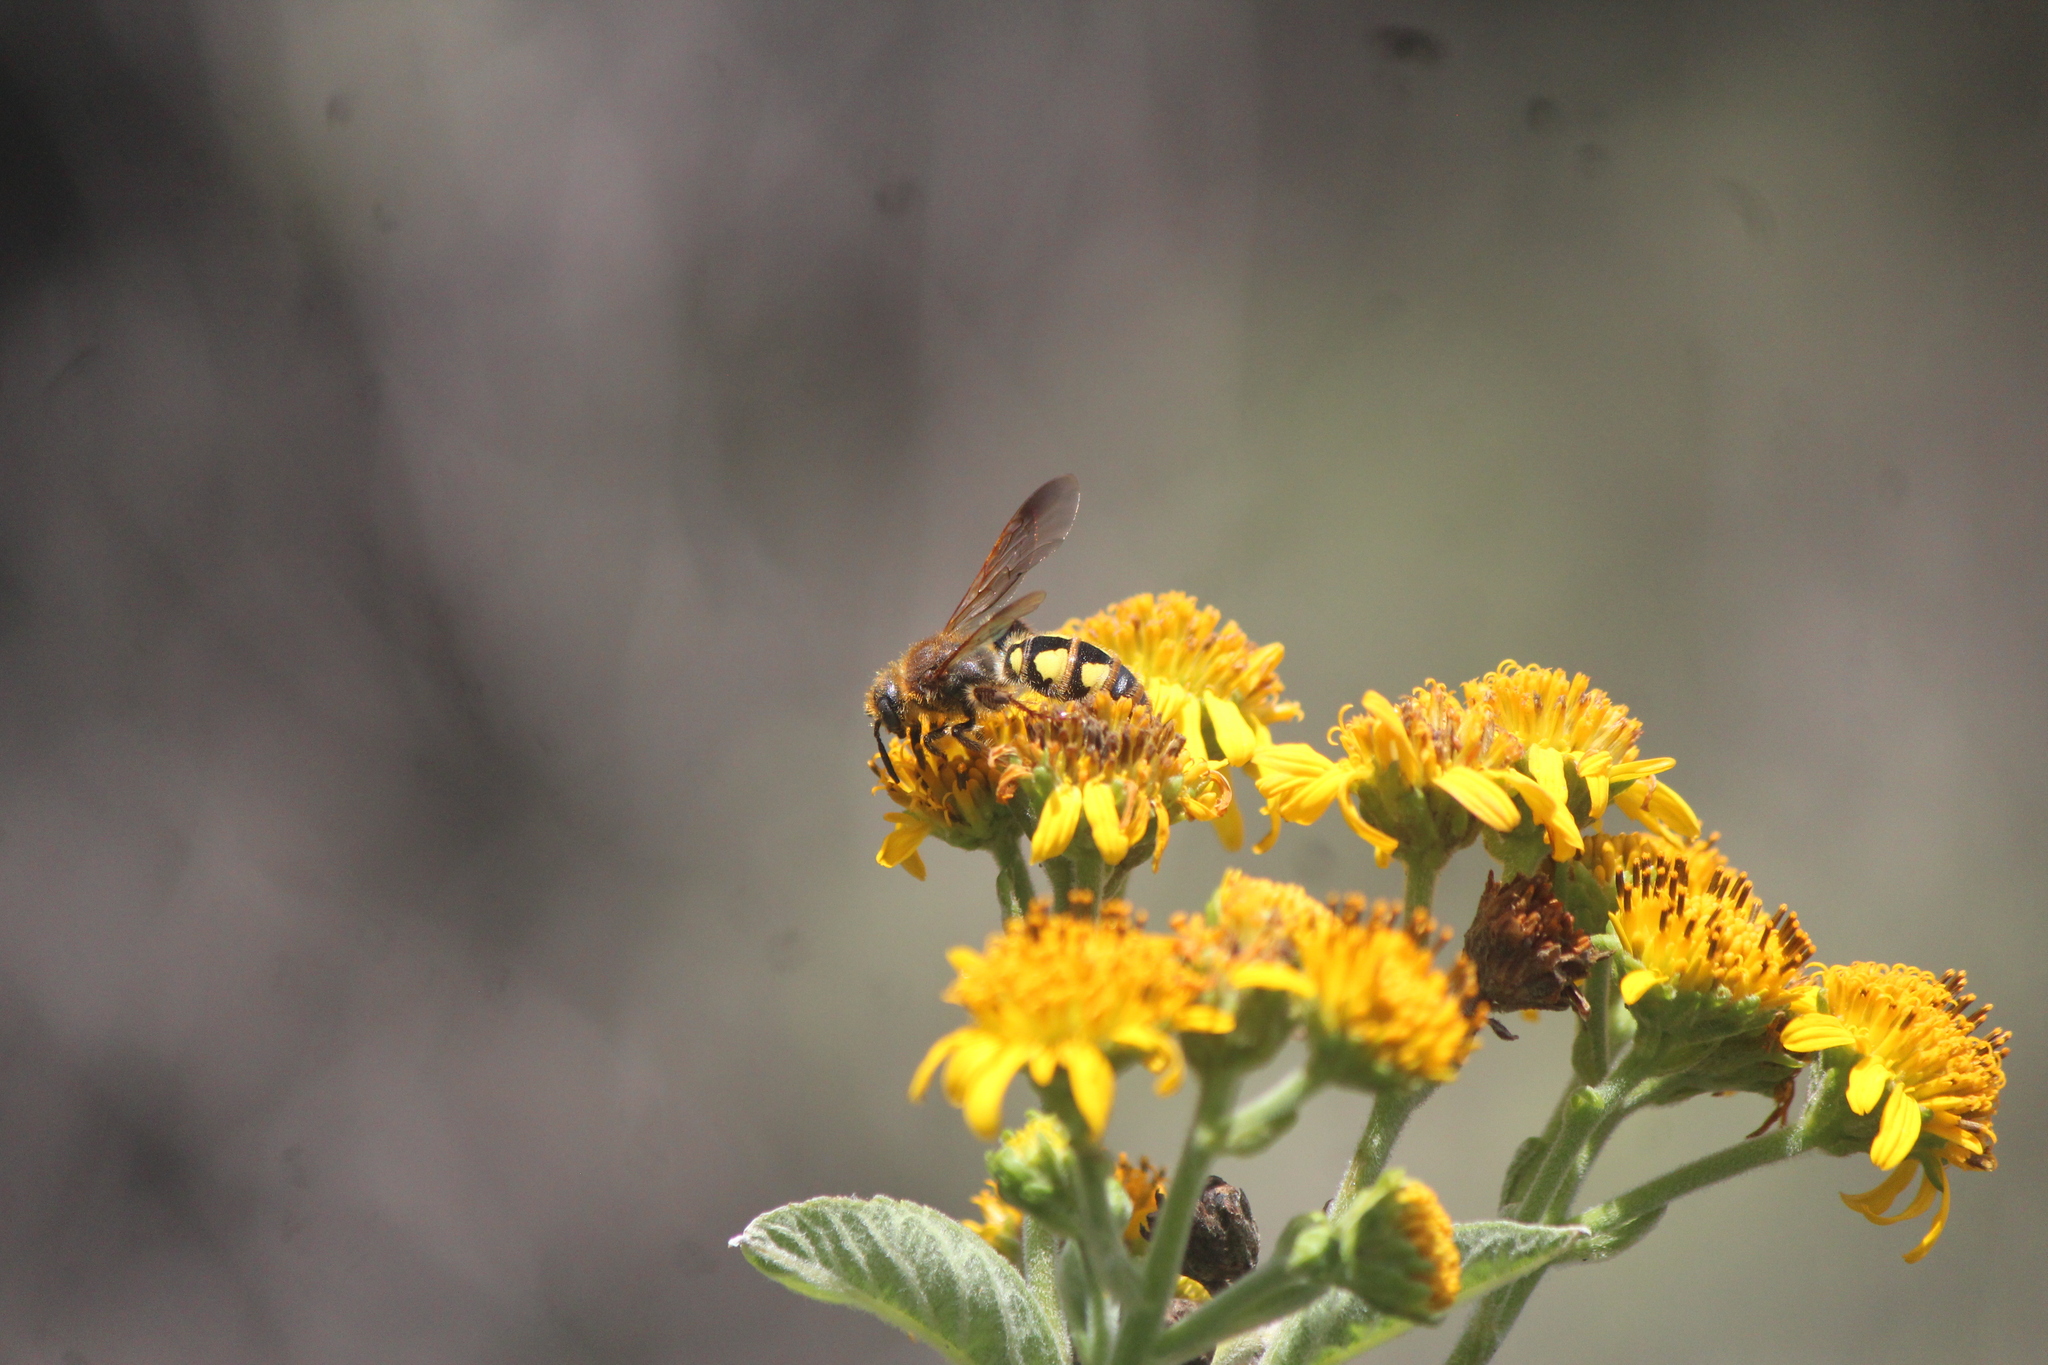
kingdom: Animalia
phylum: Arthropoda
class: Insecta
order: Hymenoptera
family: Scoliidae
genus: Xantocampsomeris
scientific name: Xantocampsomeris limosa
